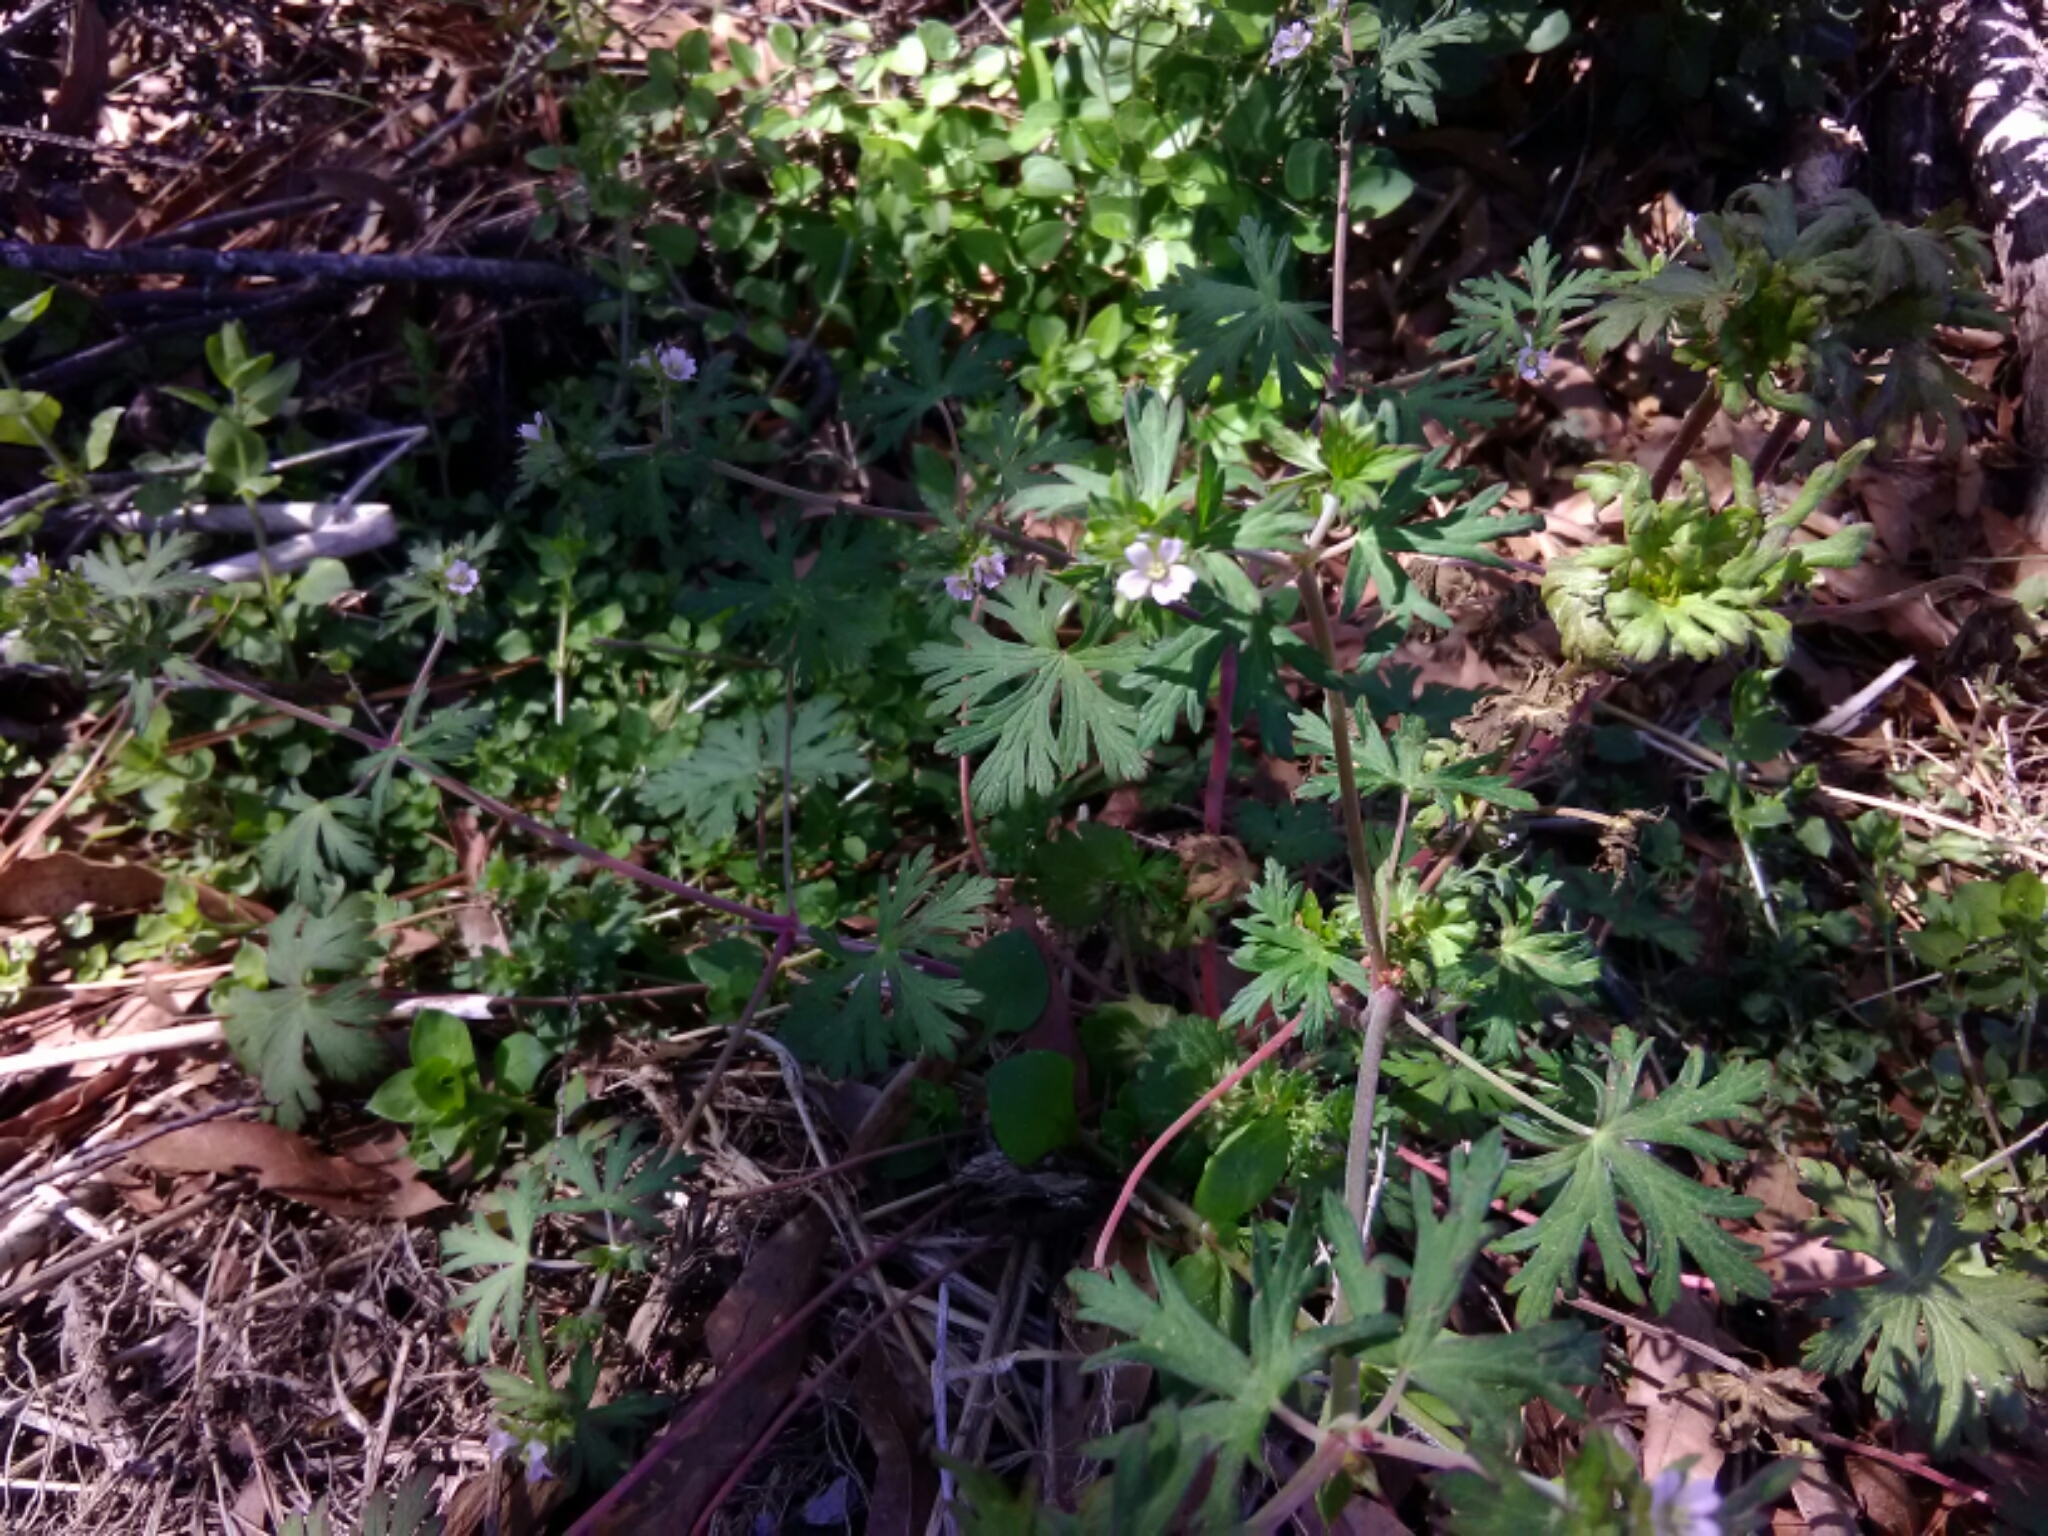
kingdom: Plantae
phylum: Tracheophyta
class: Magnoliopsida
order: Geraniales
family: Geraniaceae
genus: Geranium
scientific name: Geranium carolinianum
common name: Carolina crane's-bill
